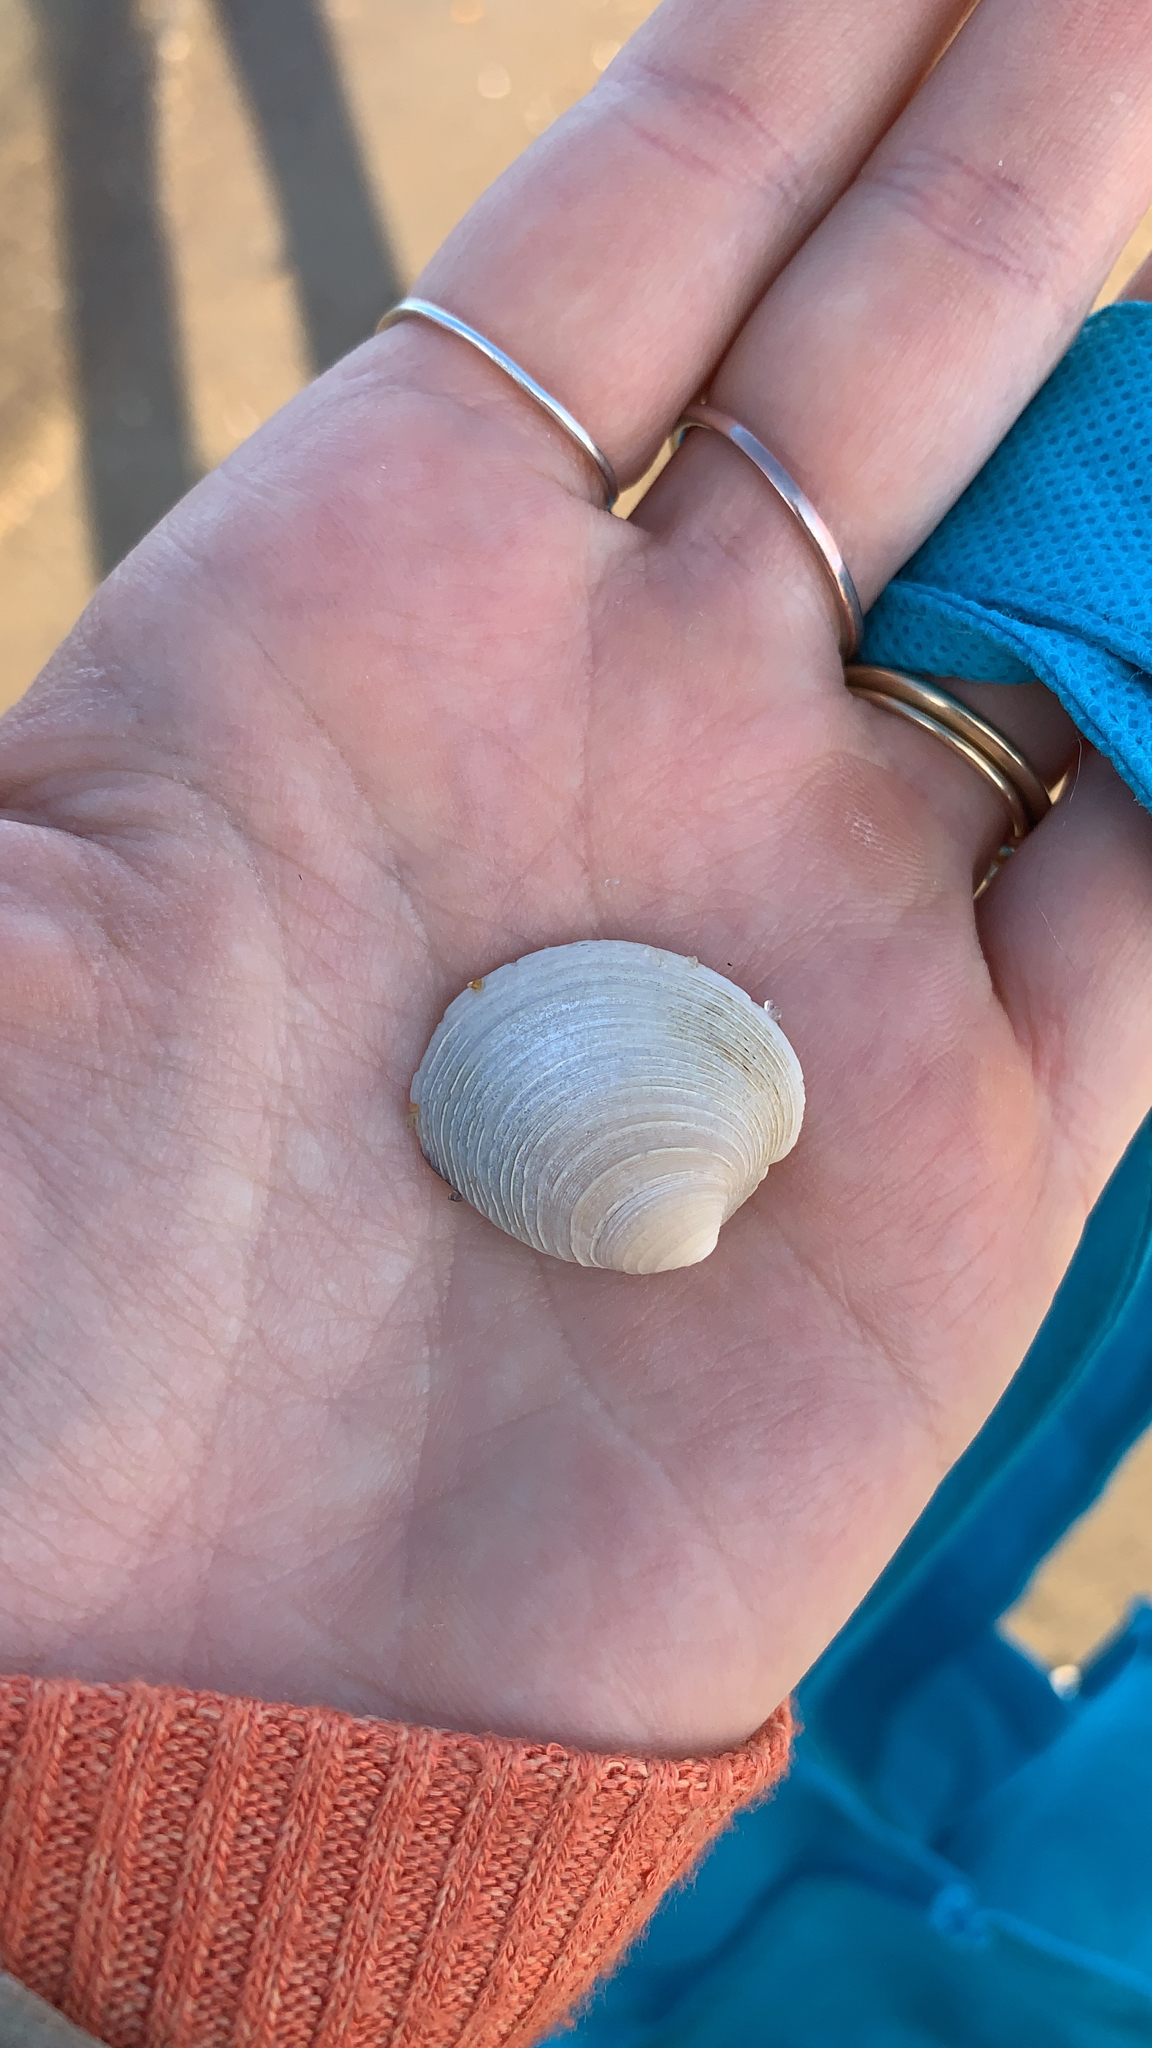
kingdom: Animalia
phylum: Mollusca
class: Bivalvia
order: Venerida
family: Veneridae
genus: Mercenaria
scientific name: Mercenaria mercenaria
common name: American hard-shelled clam
